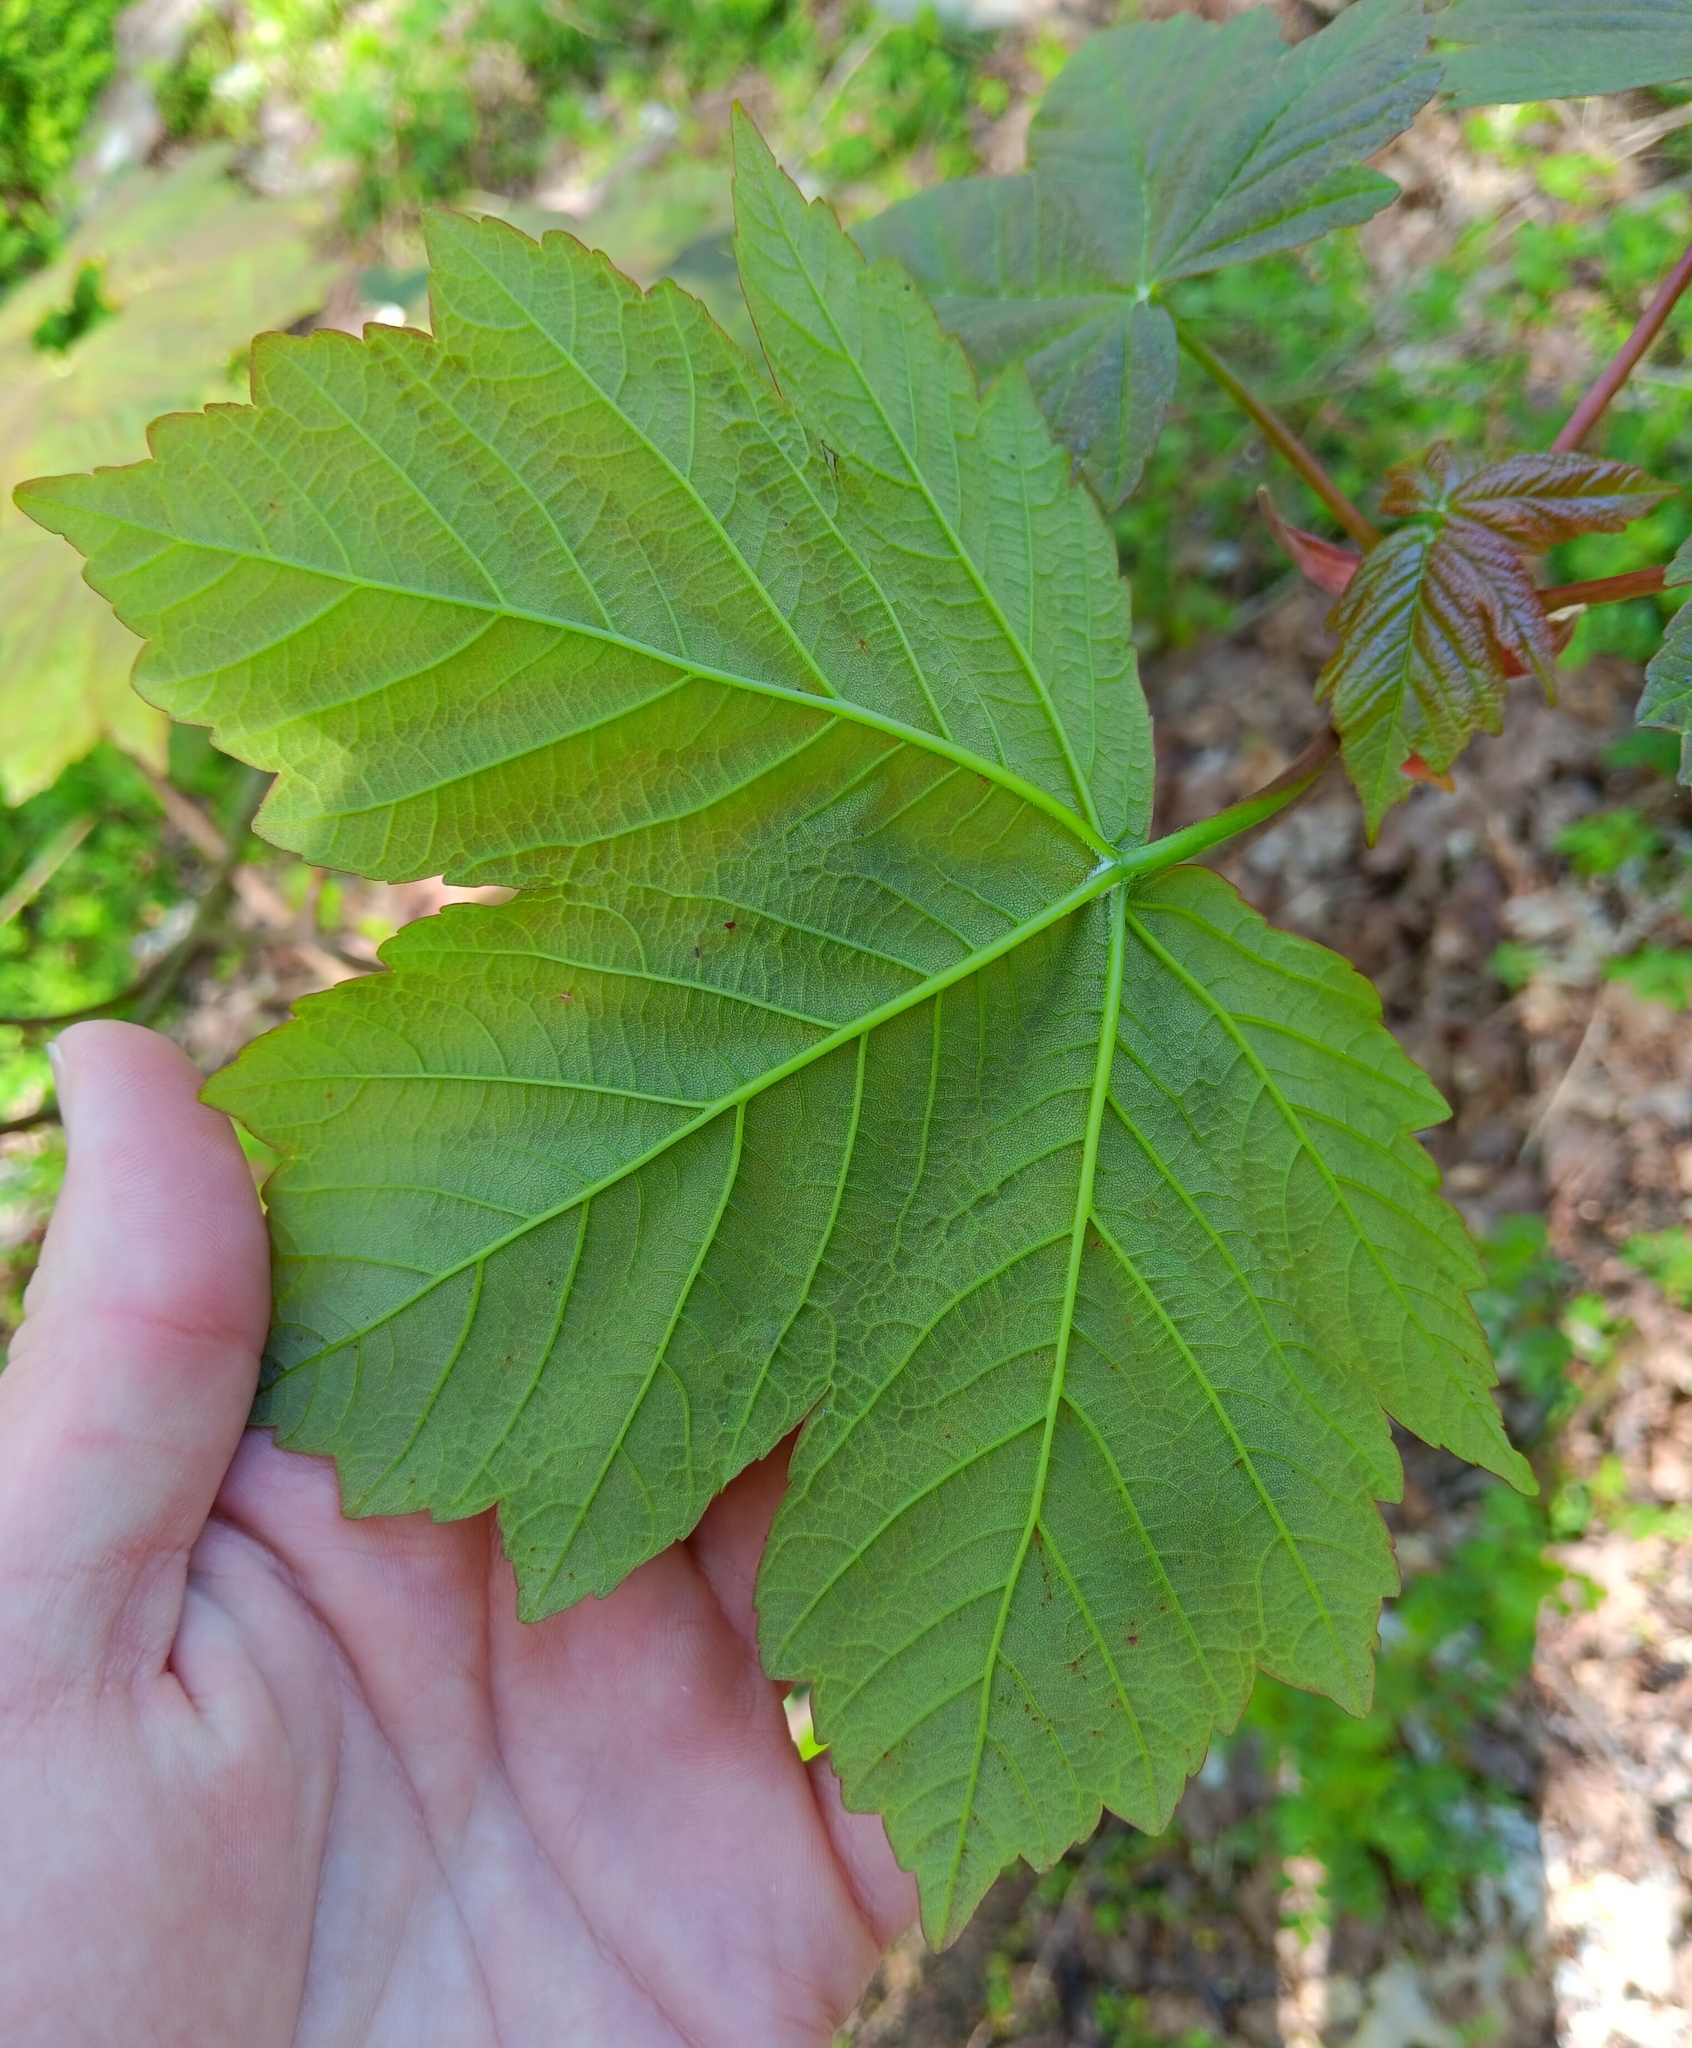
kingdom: Plantae
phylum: Tracheophyta
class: Magnoliopsida
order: Sapindales
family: Sapindaceae
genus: Acer
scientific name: Acer pseudoplatanus
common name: Sycamore
